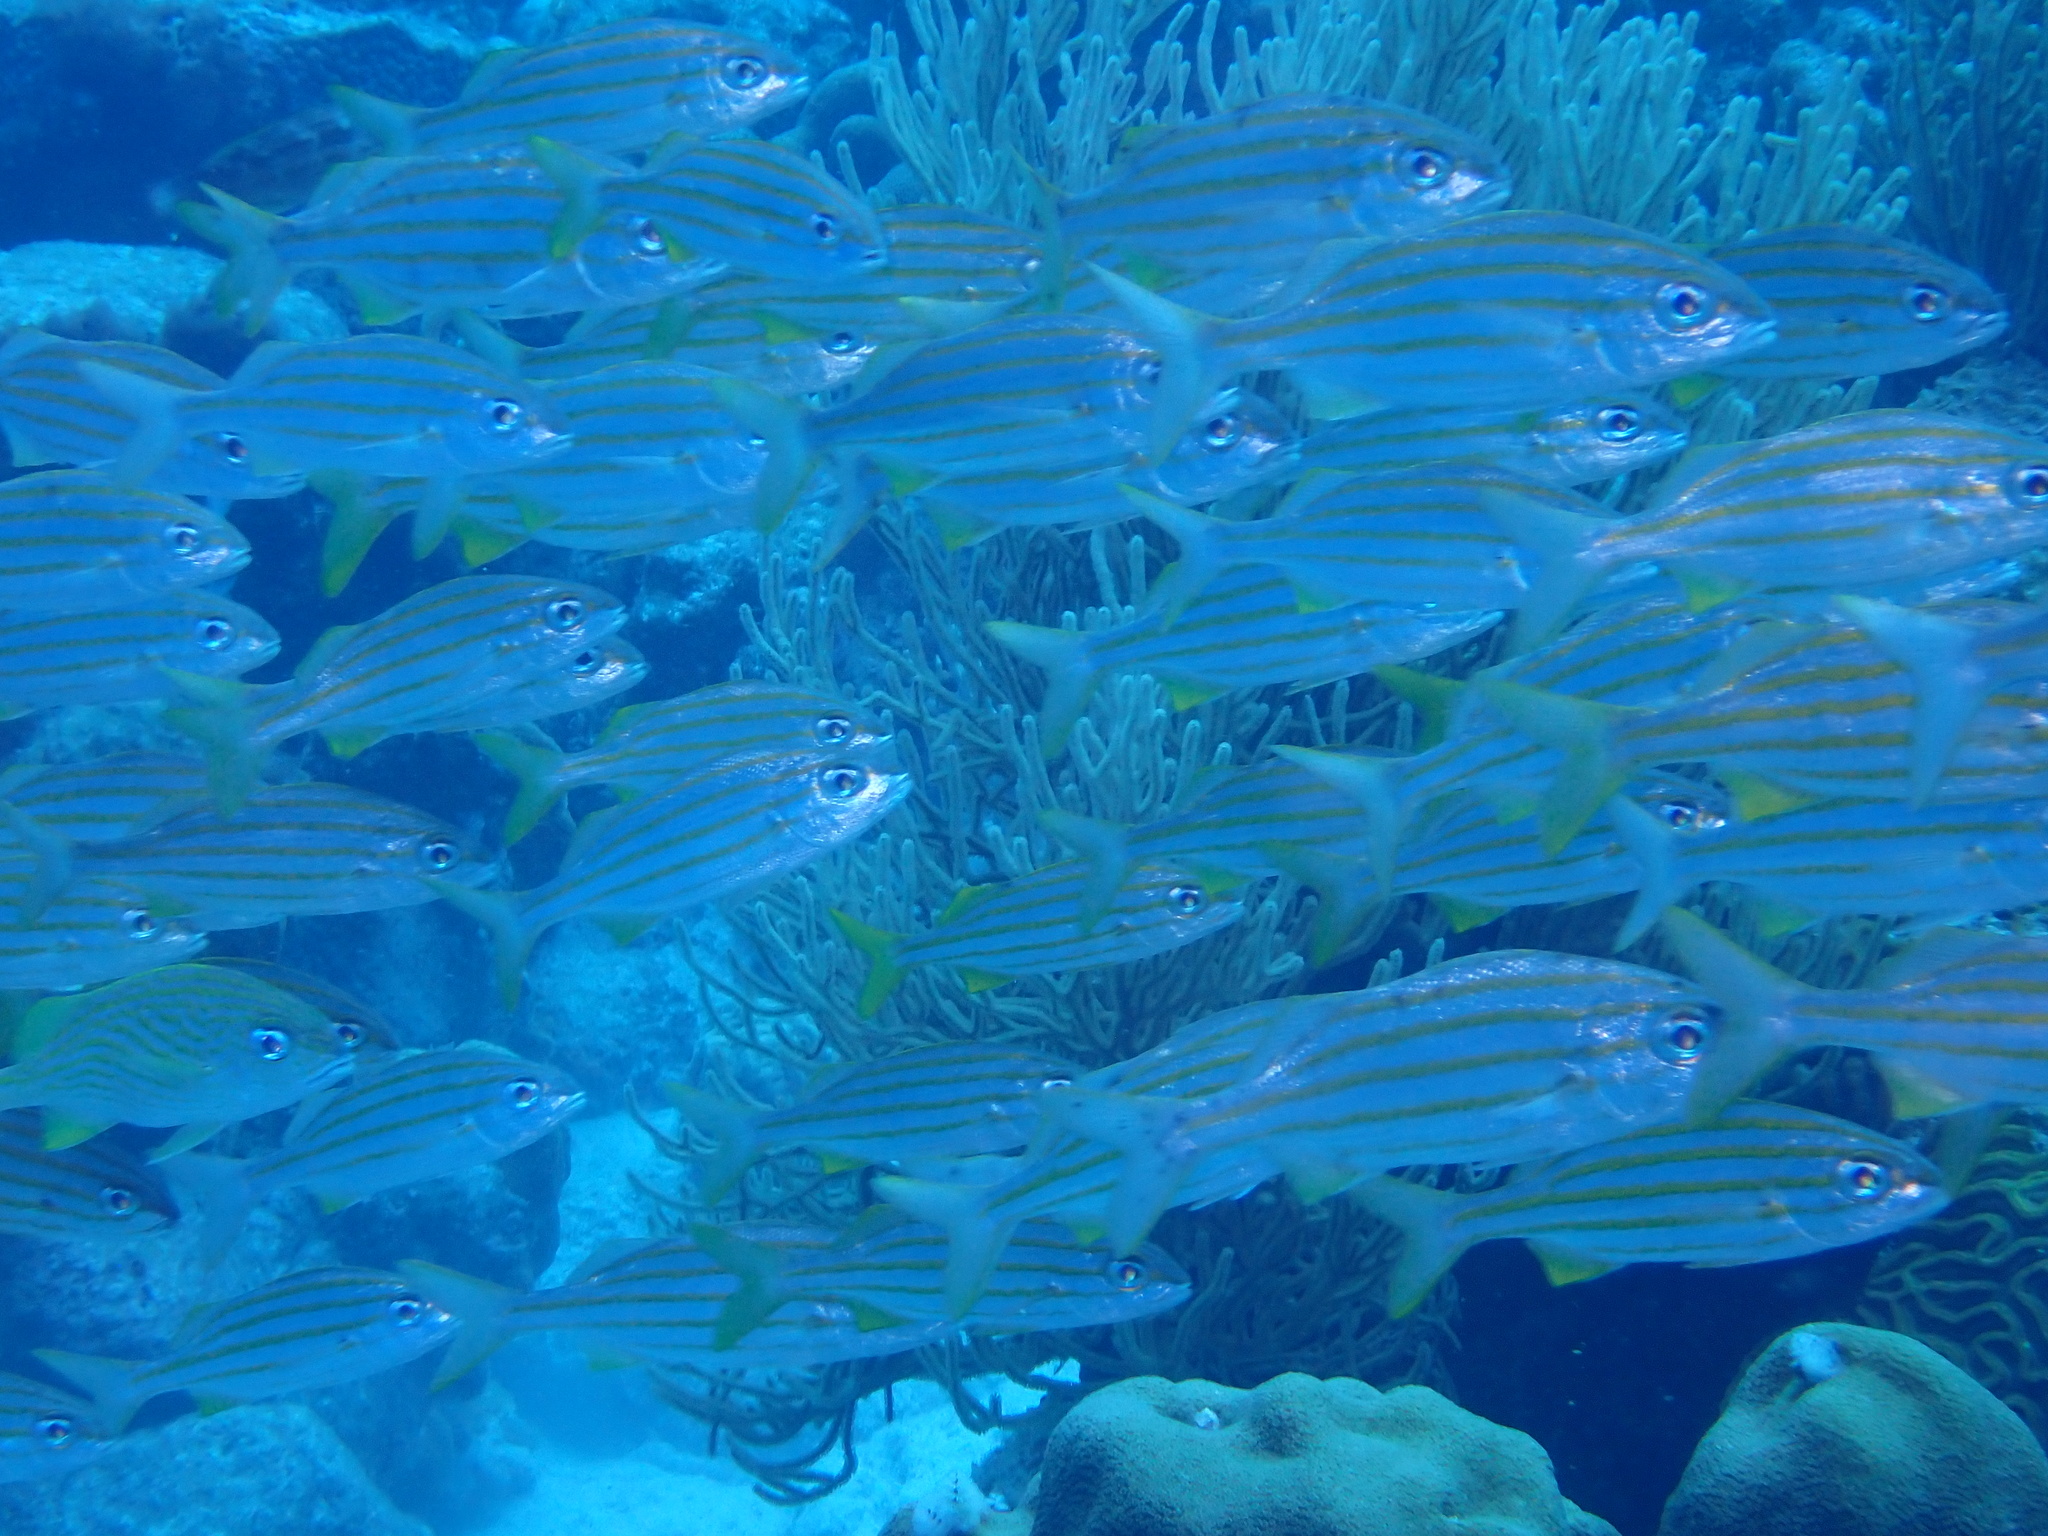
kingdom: Animalia
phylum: Chordata
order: Perciformes
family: Haemulidae
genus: Haemulon
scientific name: Haemulon chrysargyreum
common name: Smallmouth grunt
